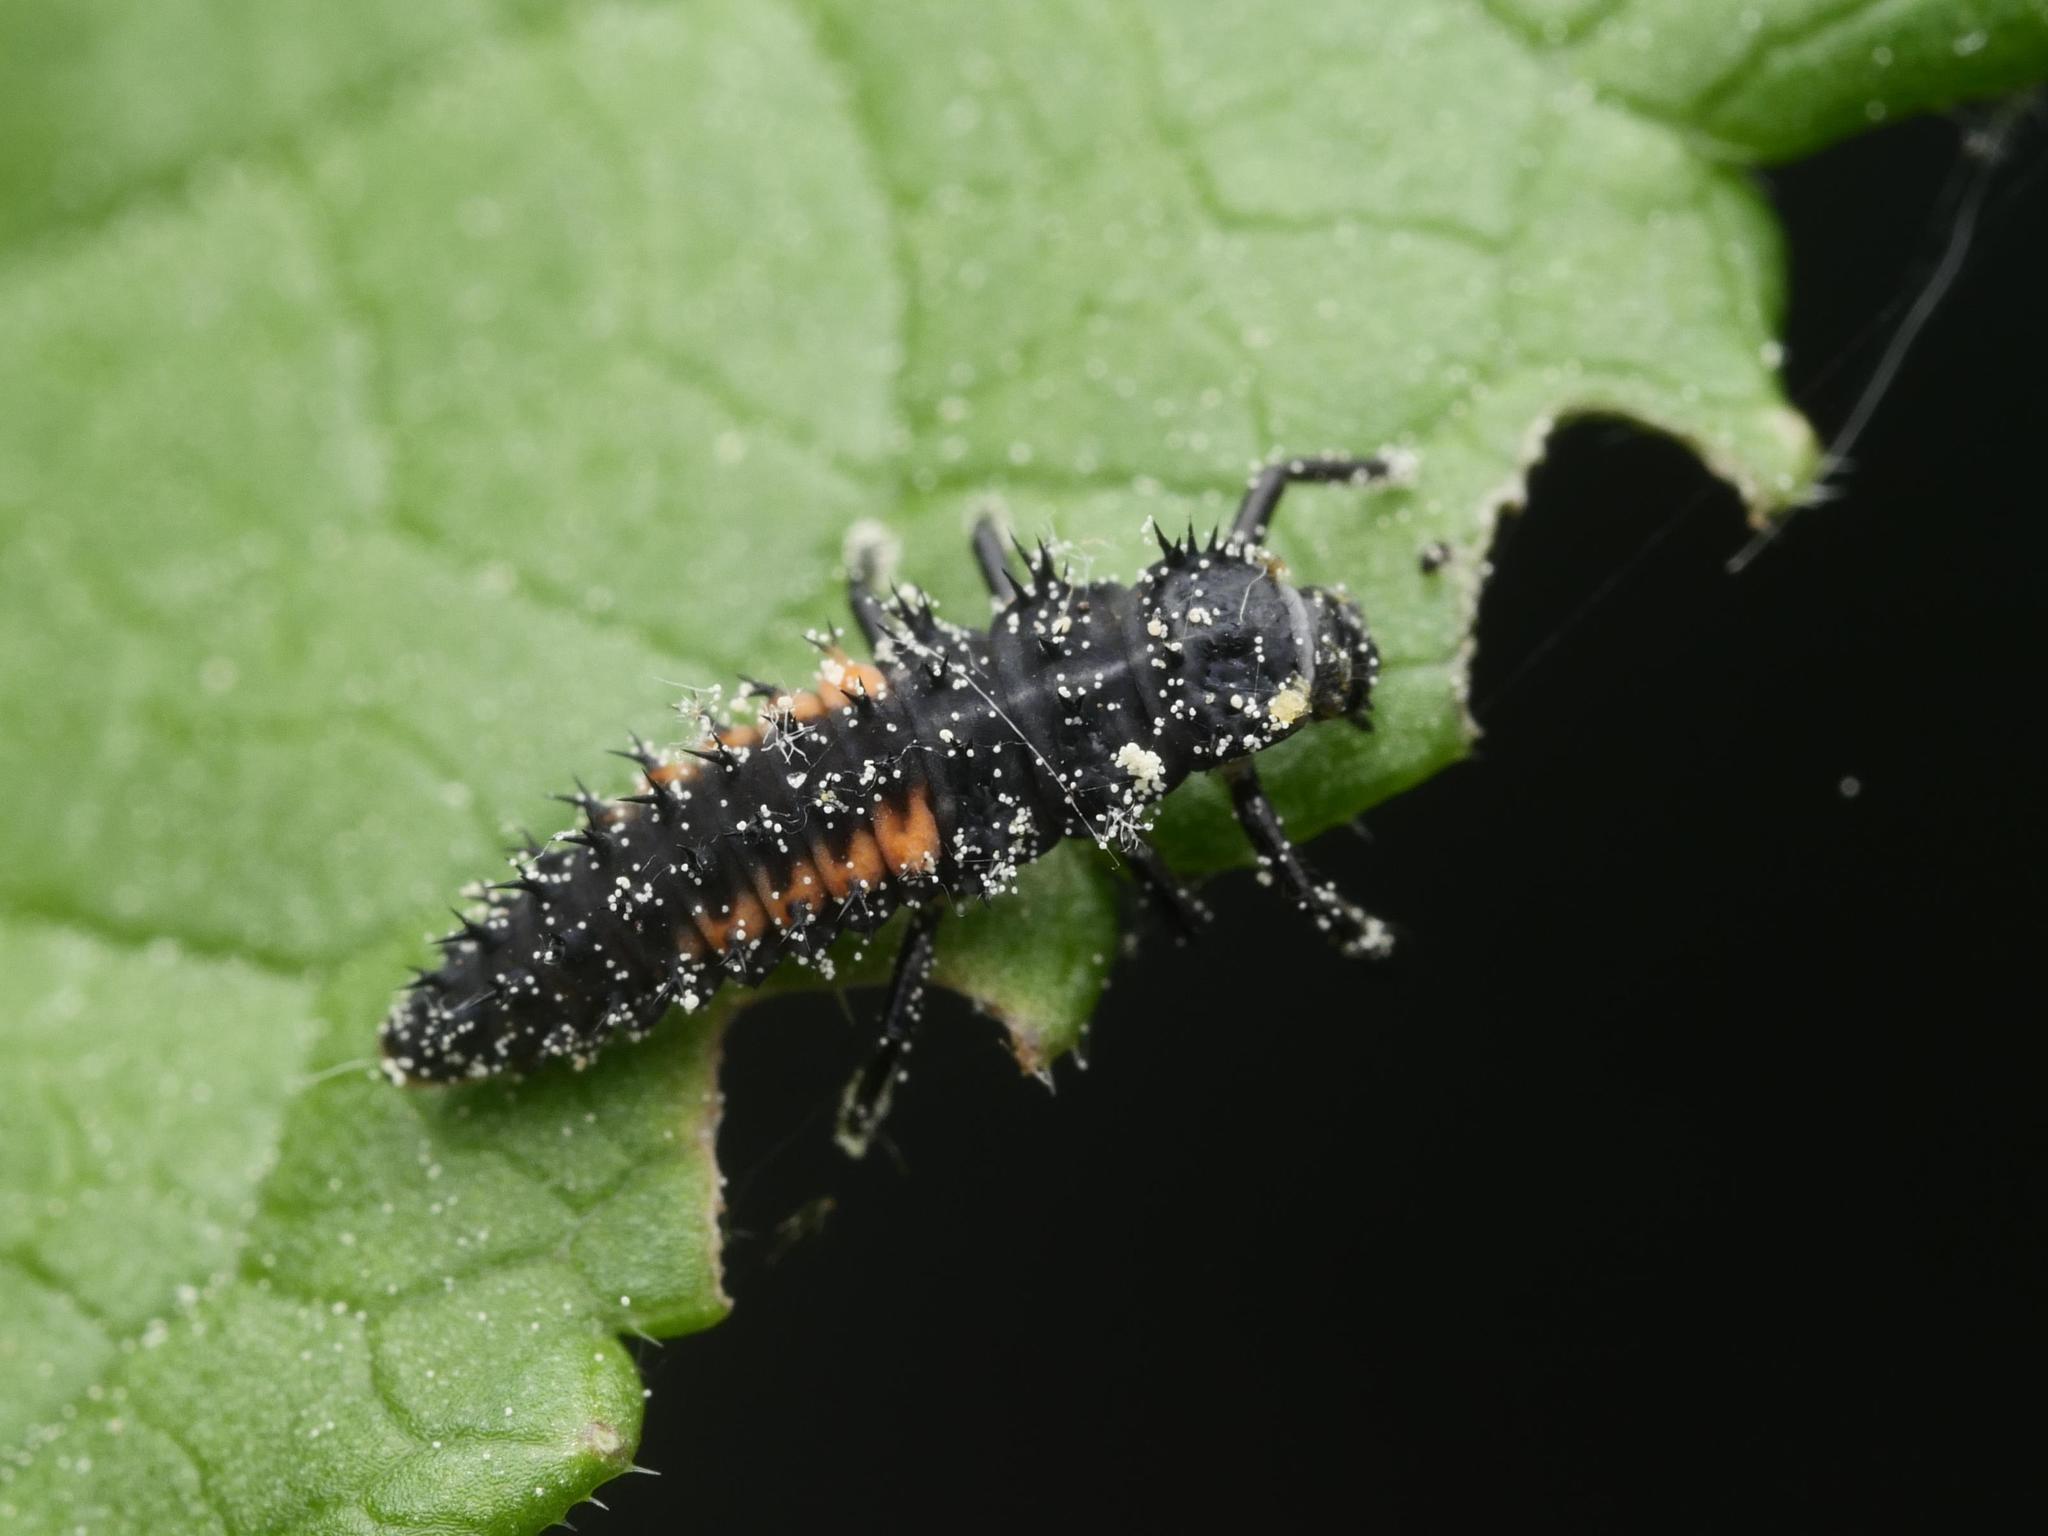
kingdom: Animalia
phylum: Arthropoda
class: Insecta
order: Coleoptera
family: Coccinellidae
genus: Harmonia
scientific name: Harmonia axyridis
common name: Harlequin ladybird
